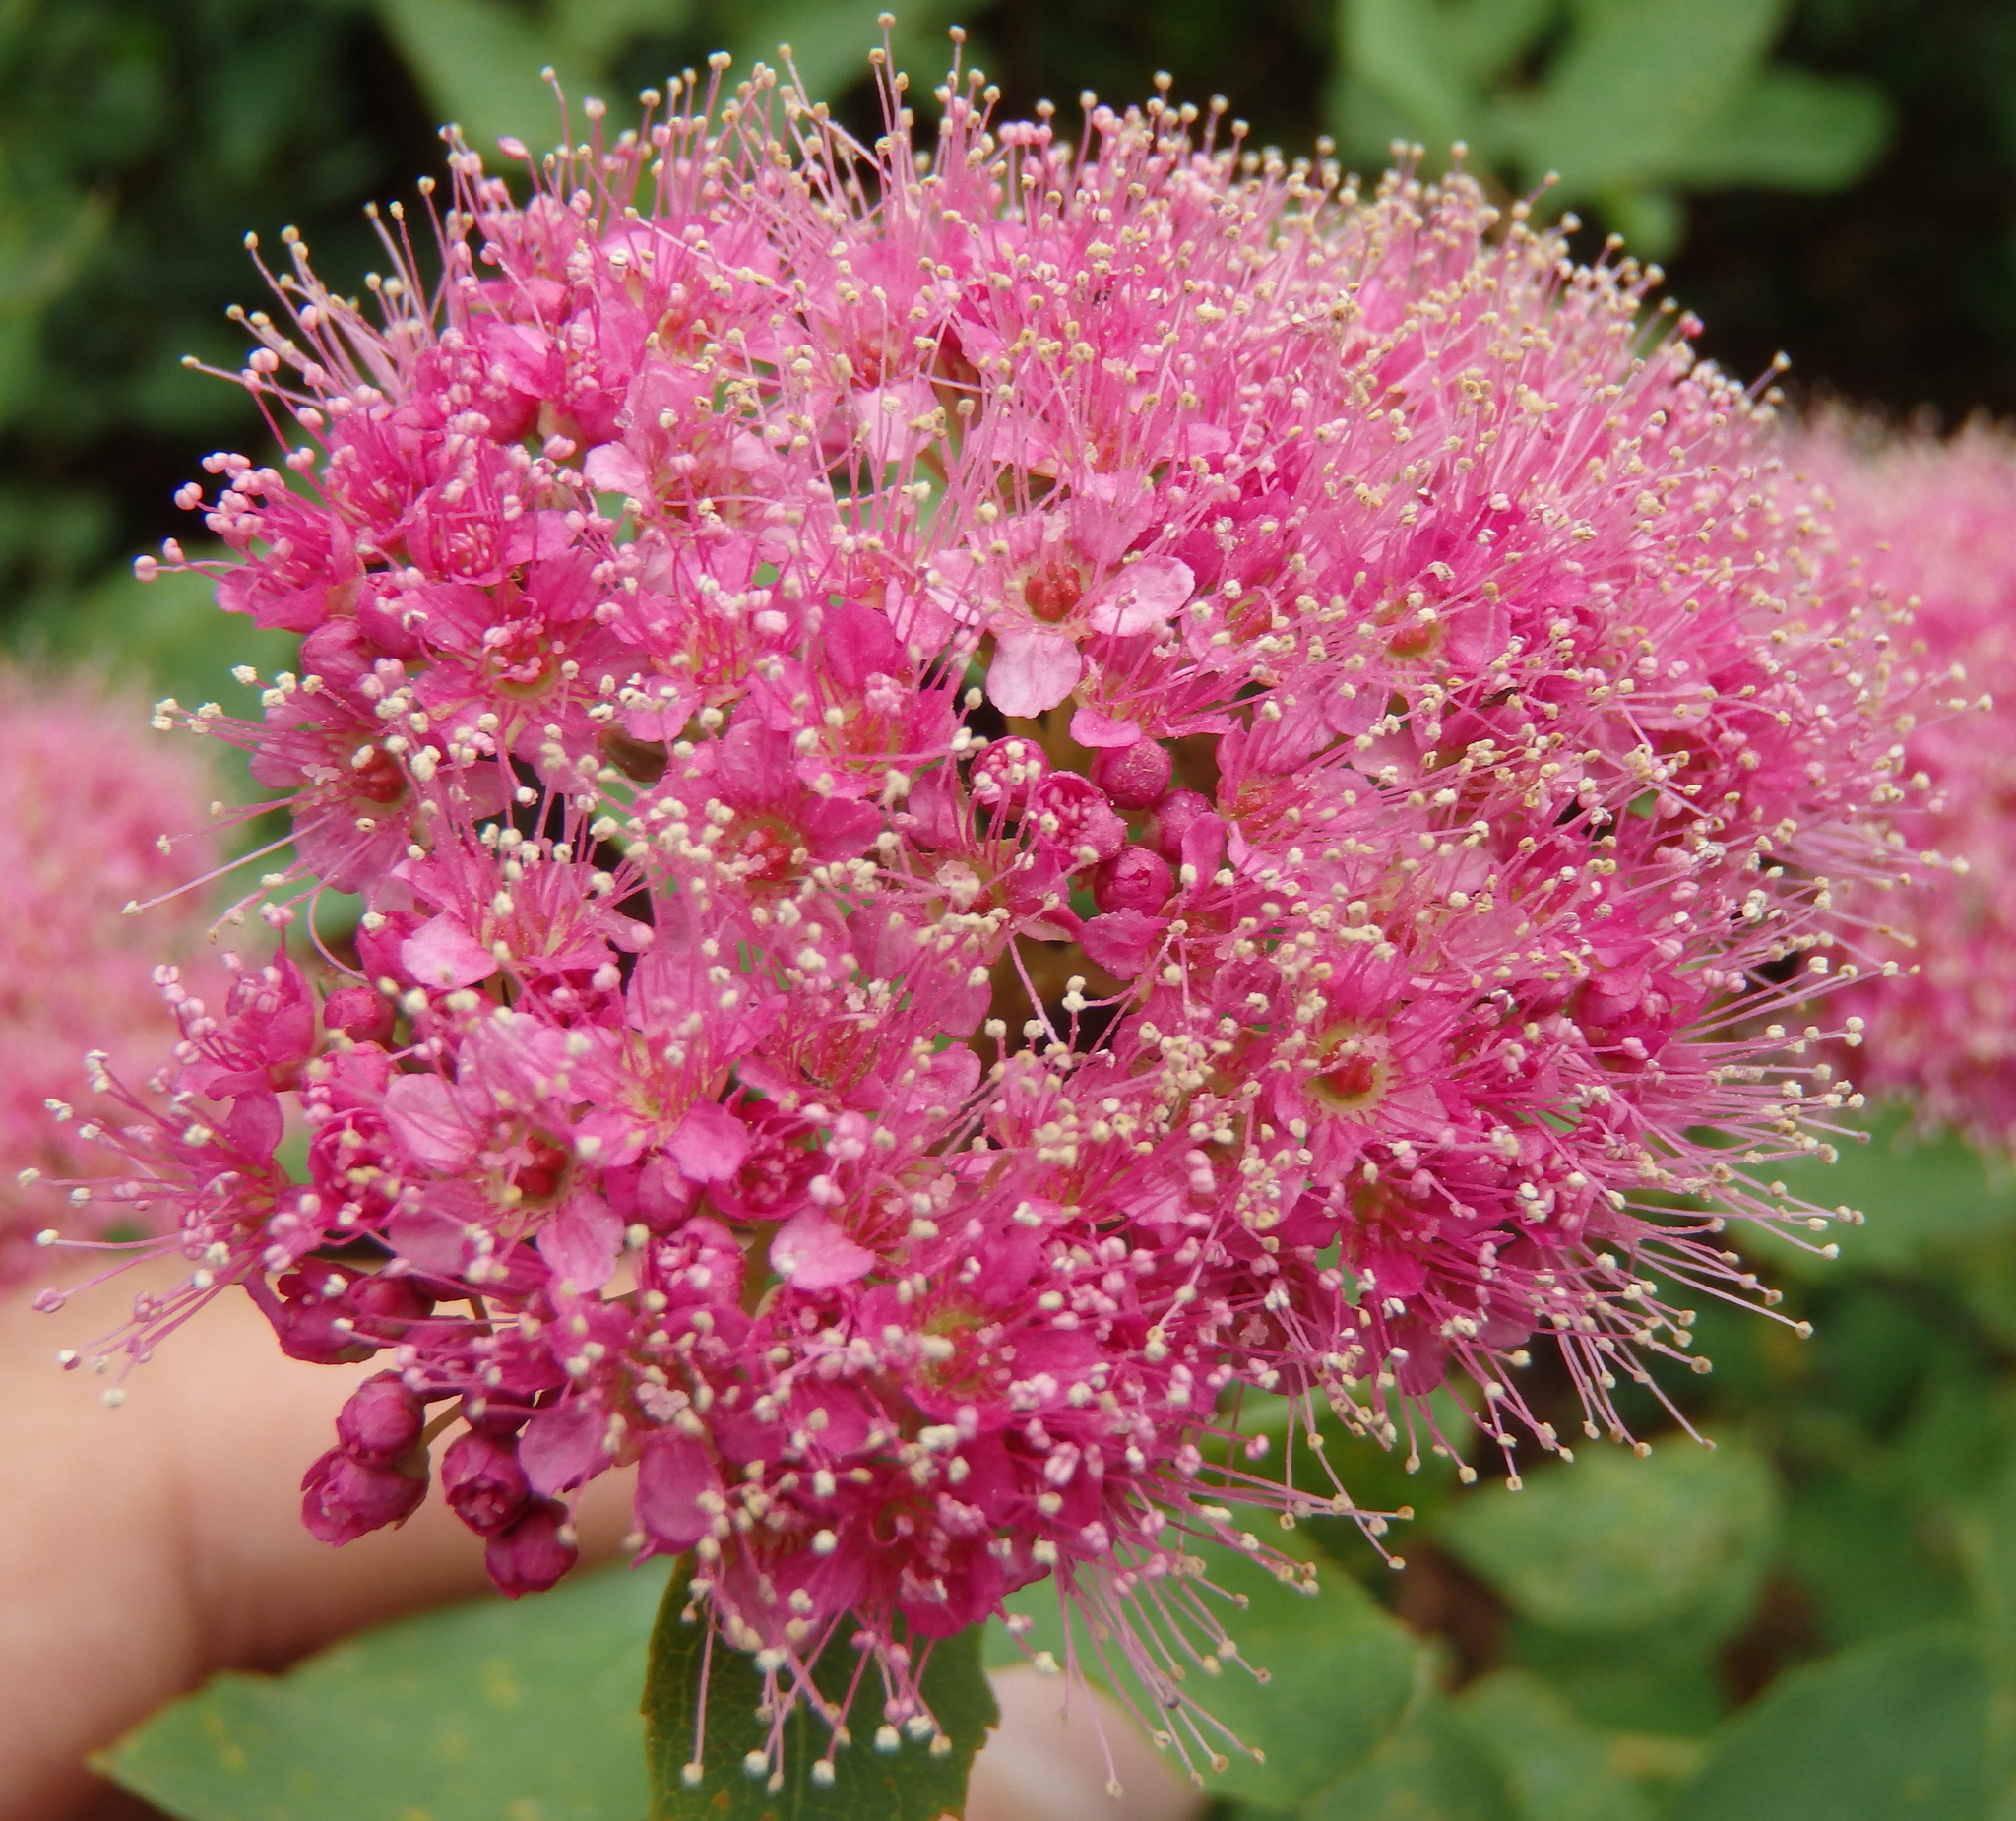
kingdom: Plantae
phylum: Tracheophyta
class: Magnoliopsida
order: Rosales
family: Rosaceae
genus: Spiraea
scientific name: Spiraea splendens
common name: Subalpine meadowsweet
